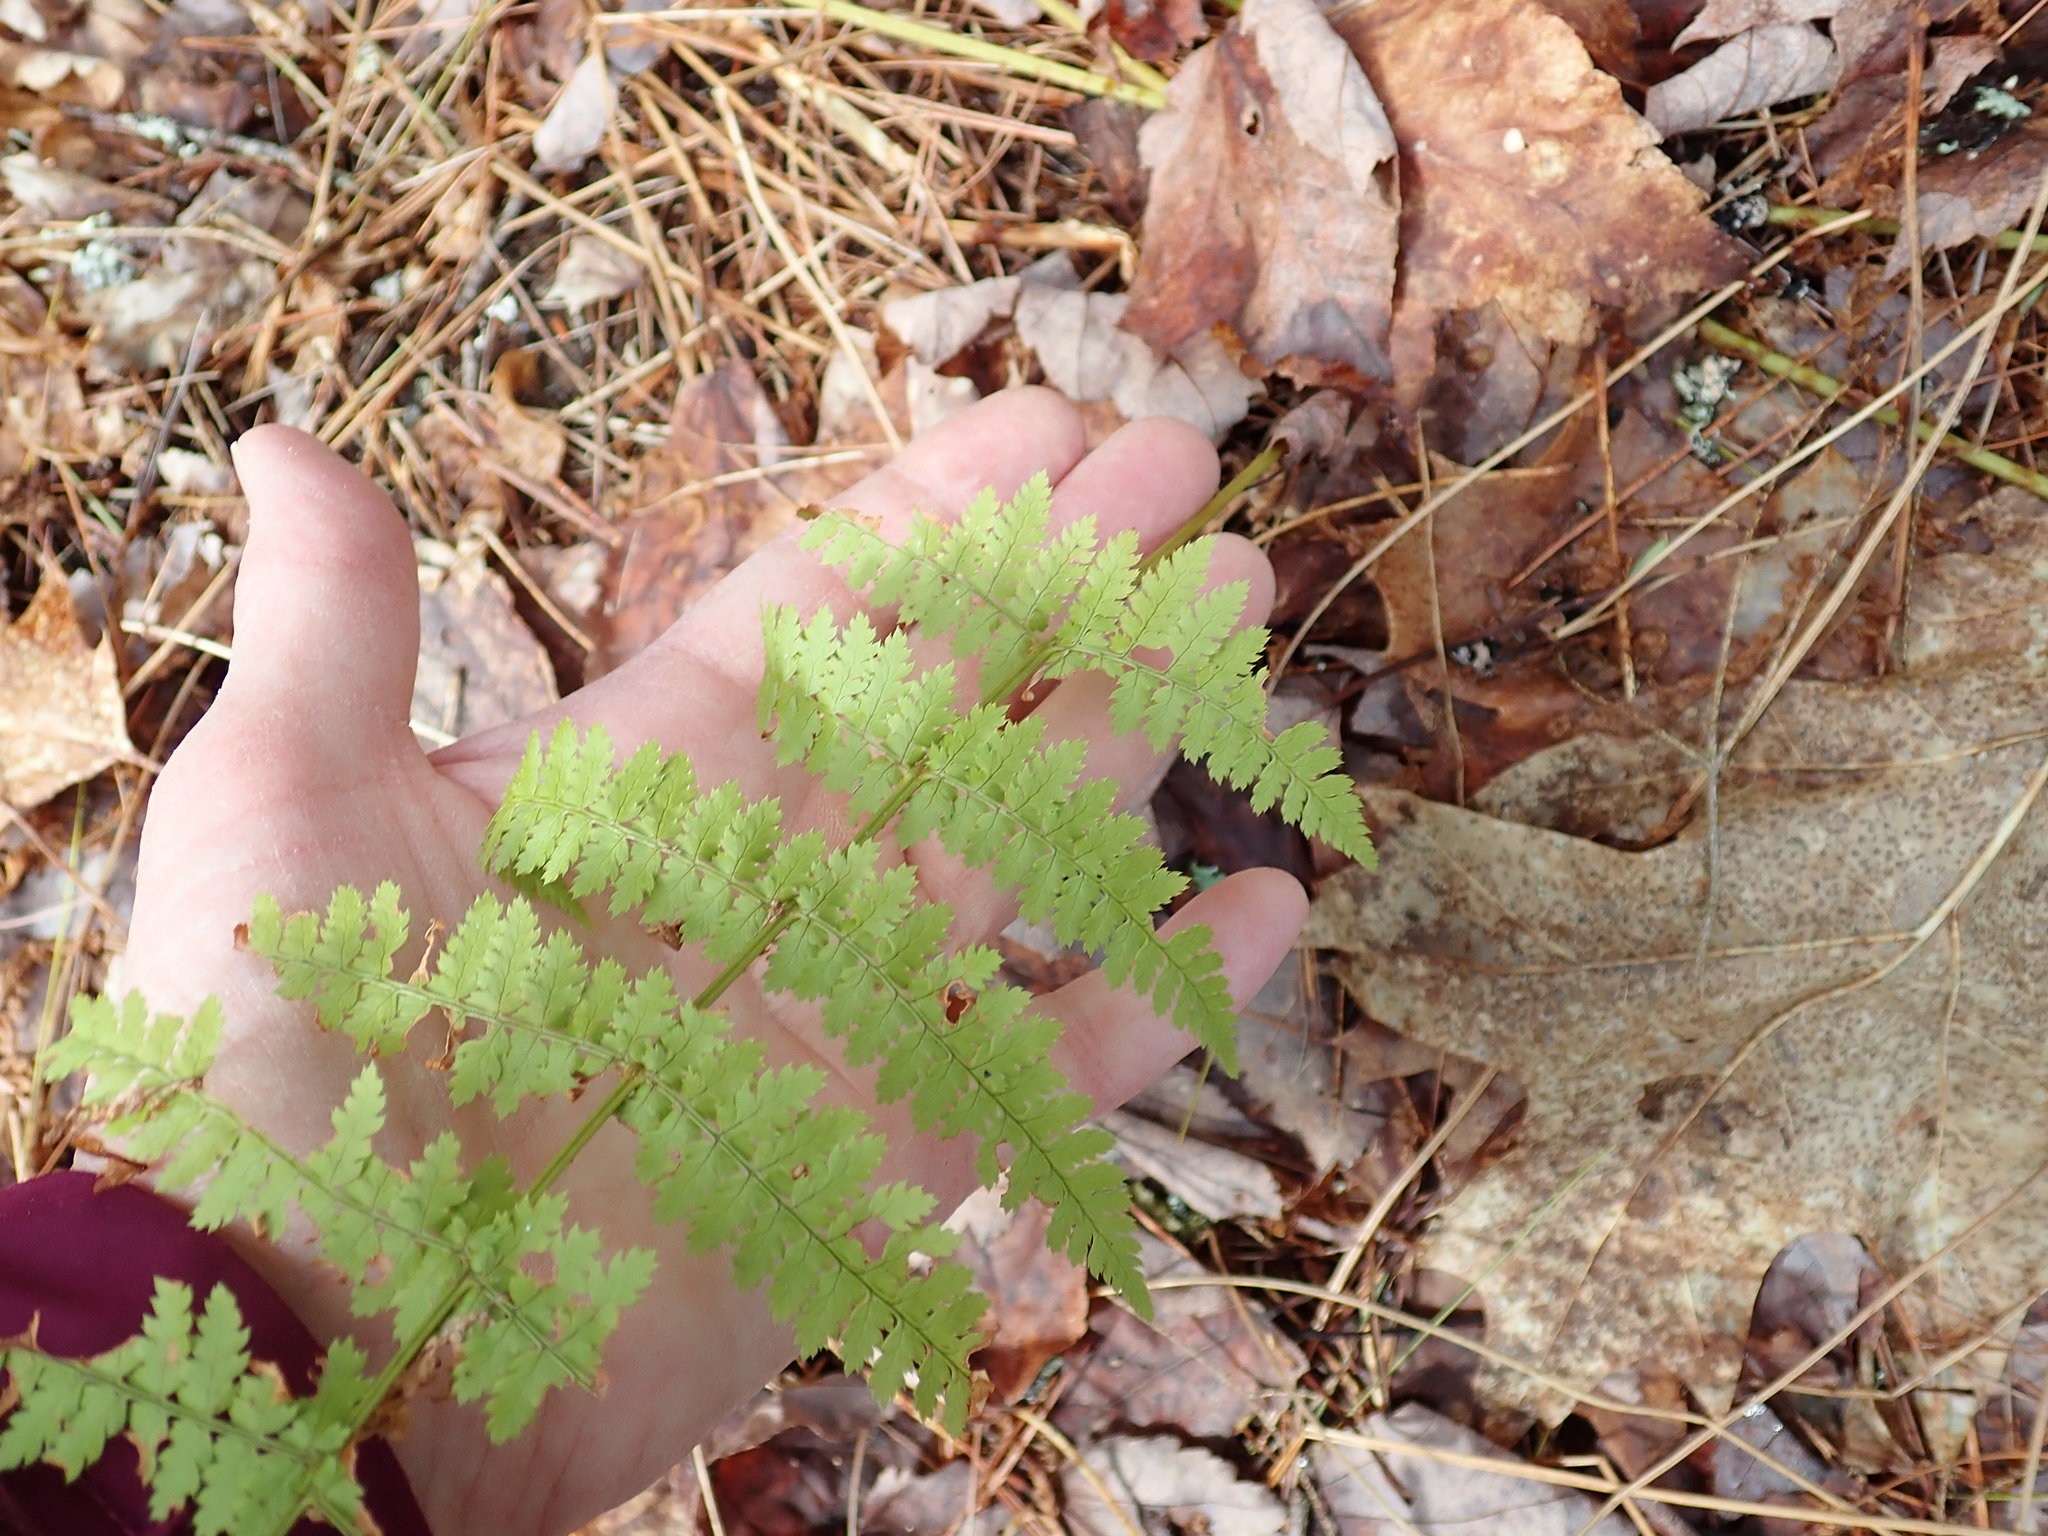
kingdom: Plantae
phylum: Tracheophyta
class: Polypodiopsida
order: Polypodiales
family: Dryopteridaceae
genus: Dryopteris
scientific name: Dryopteris intermedia
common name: Evergreen wood fern
